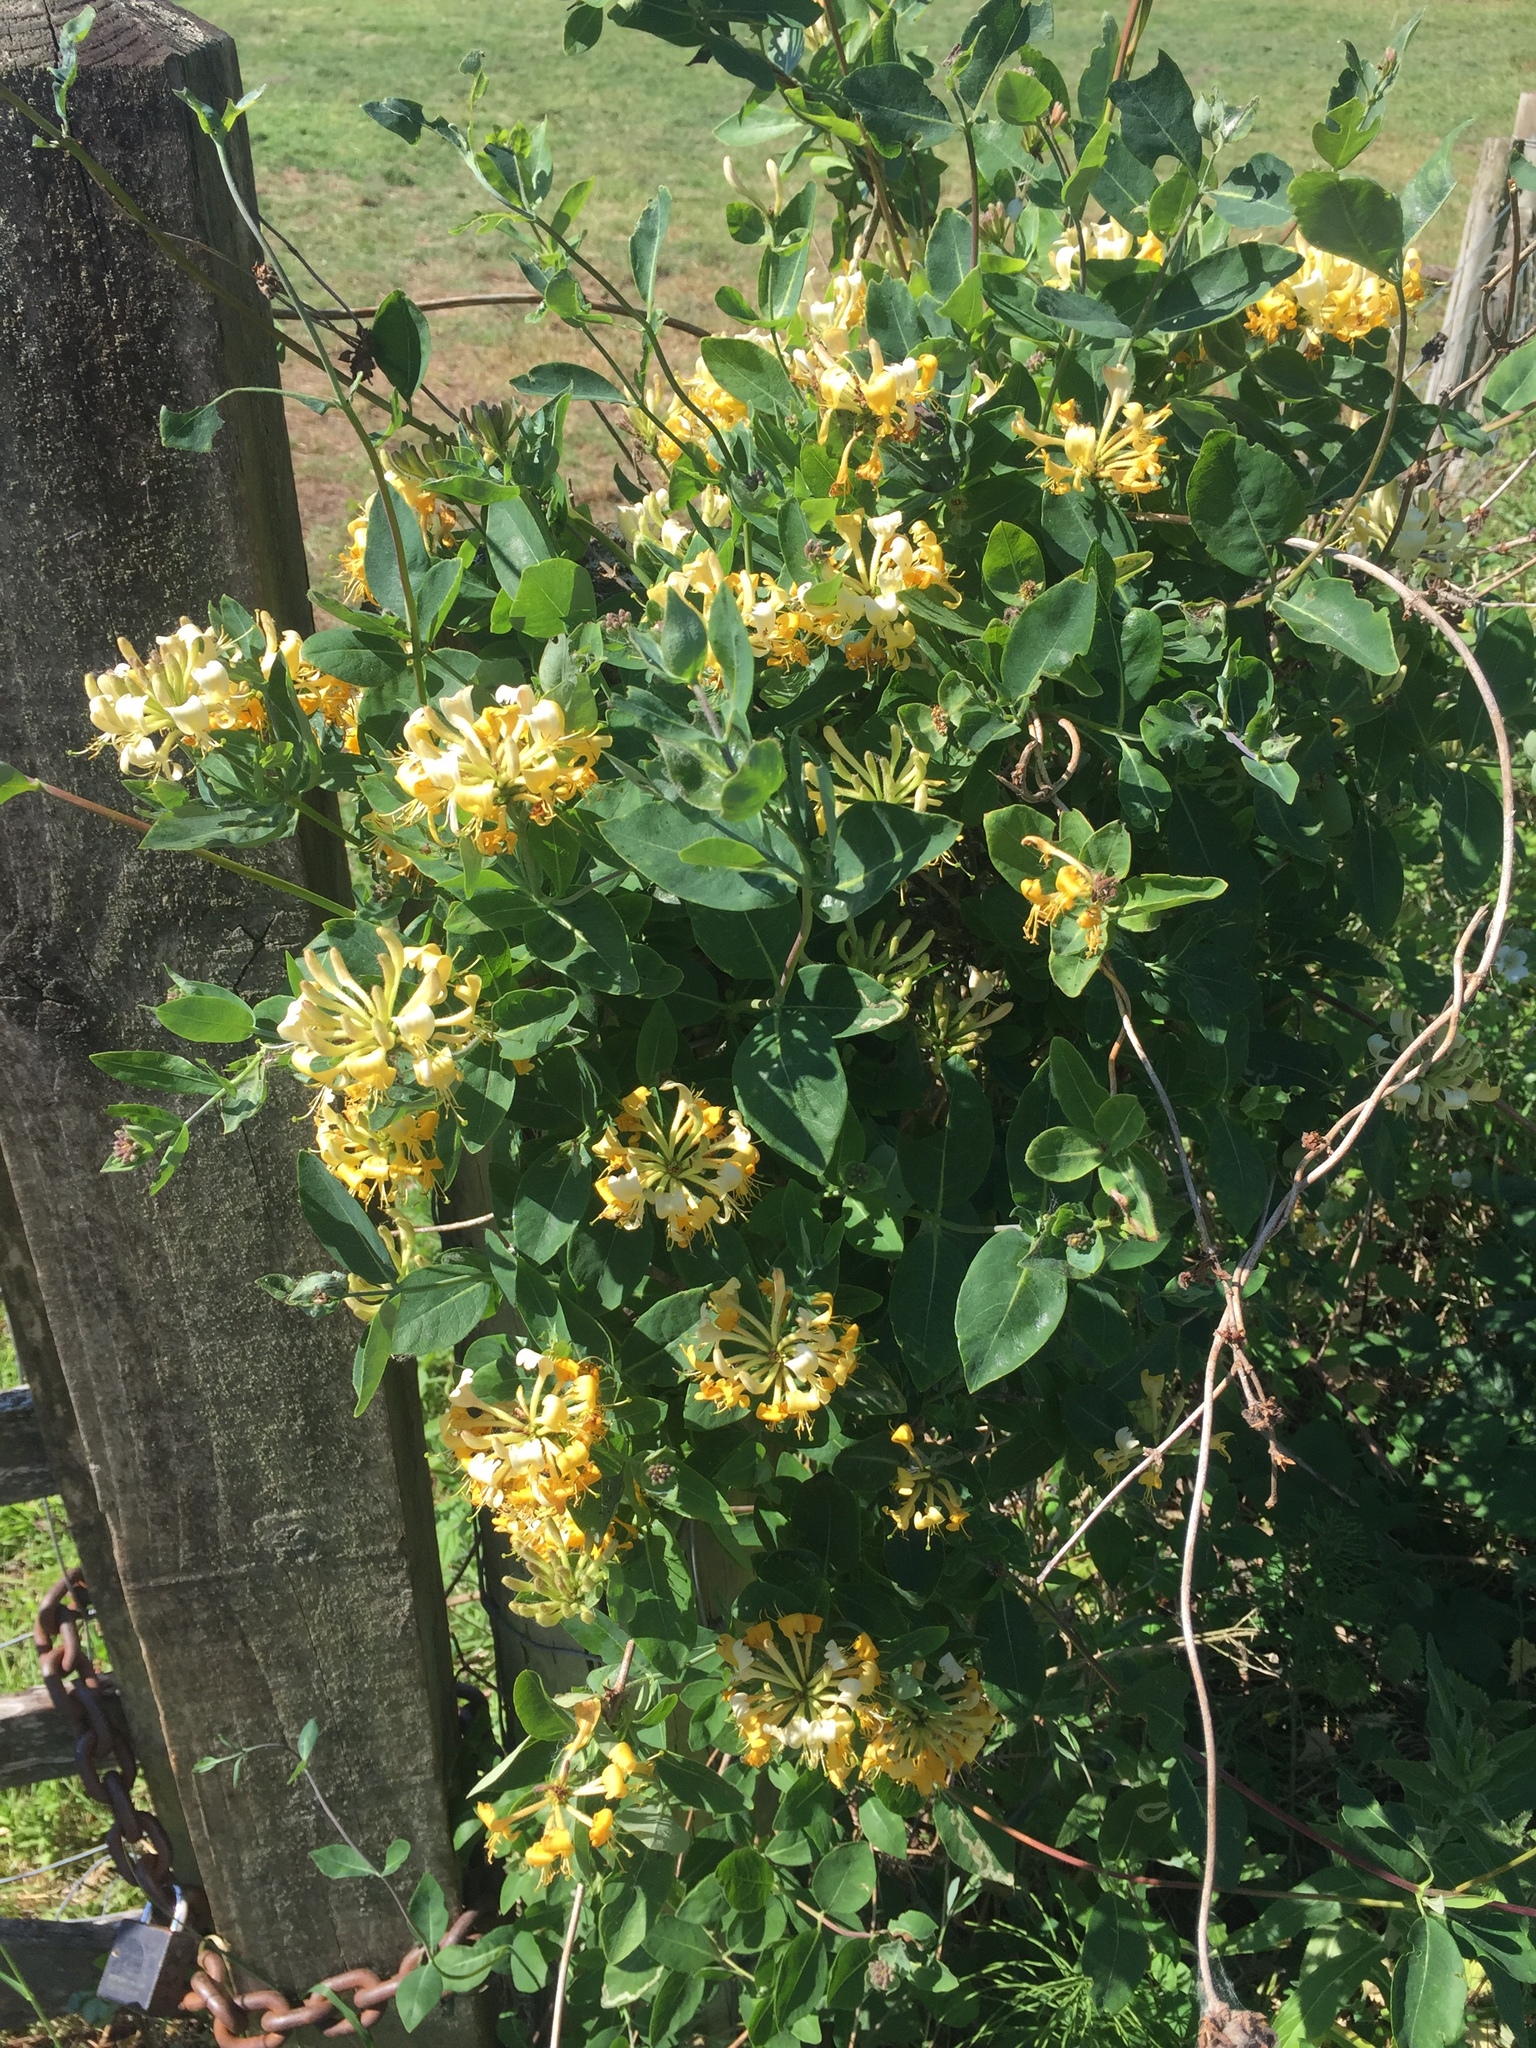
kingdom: Plantae
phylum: Tracheophyta
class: Magnoliopsida
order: Dipsacales
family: Caprifoliaceae
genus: Lonicera
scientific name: Lonicera periclymenum
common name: European honeysuckle
